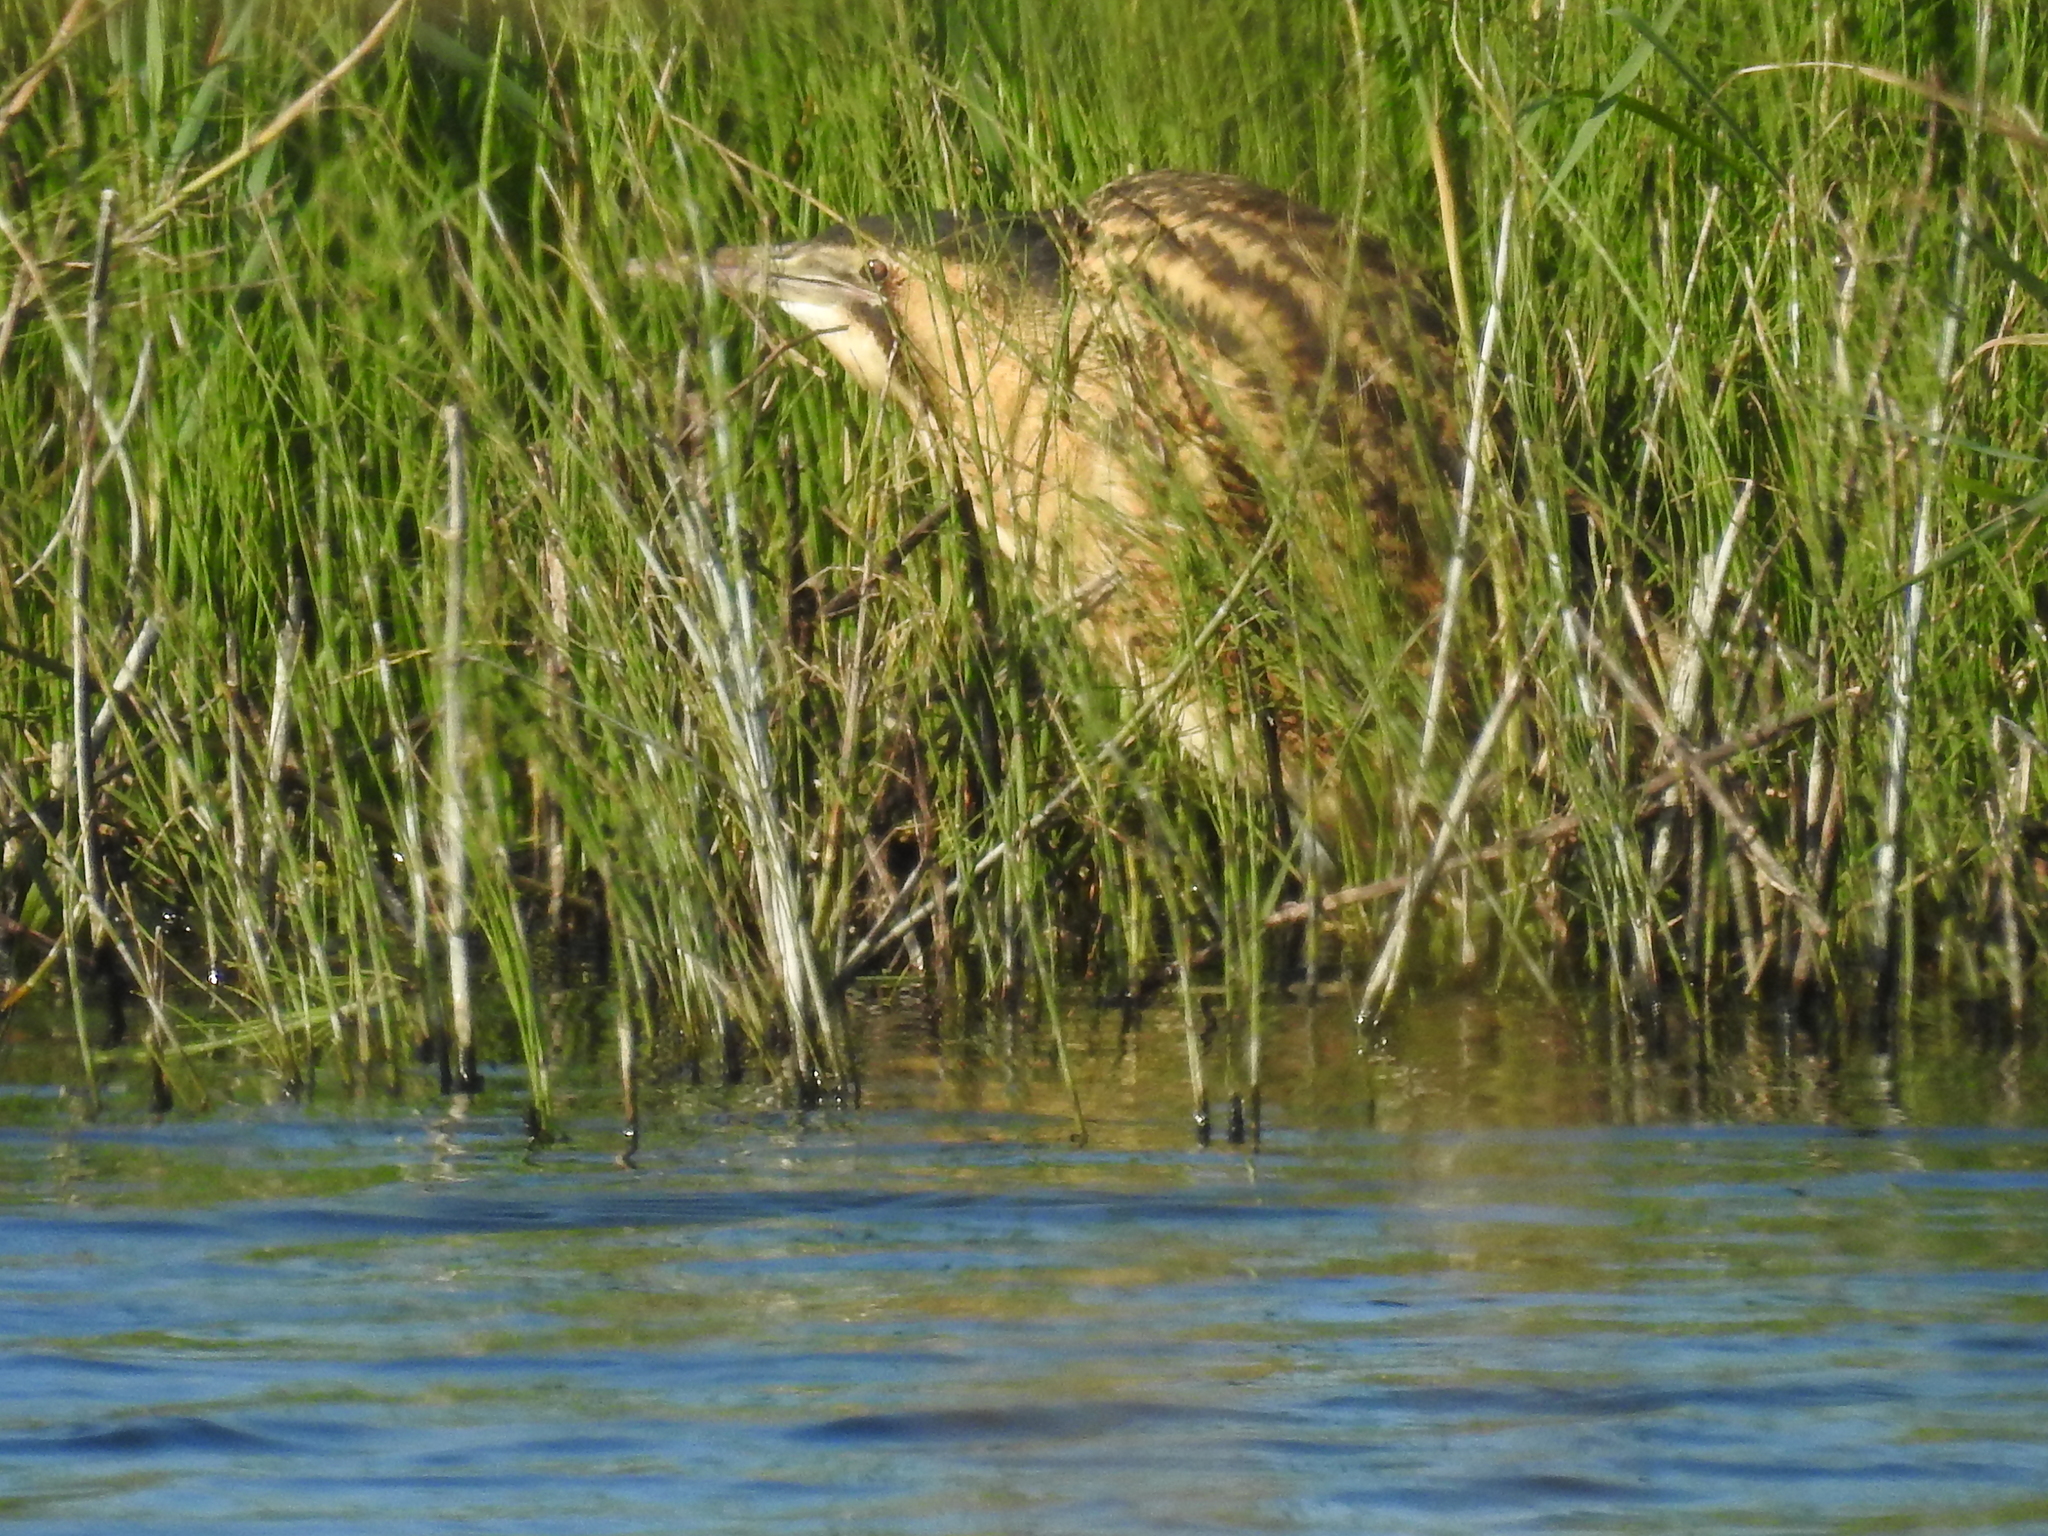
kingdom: Animalia
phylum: Chordata
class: Aves
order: Pelecaniformes
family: Ardeidae
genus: Botaurus
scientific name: Botaurus stellaris
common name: Eurasian bittern
